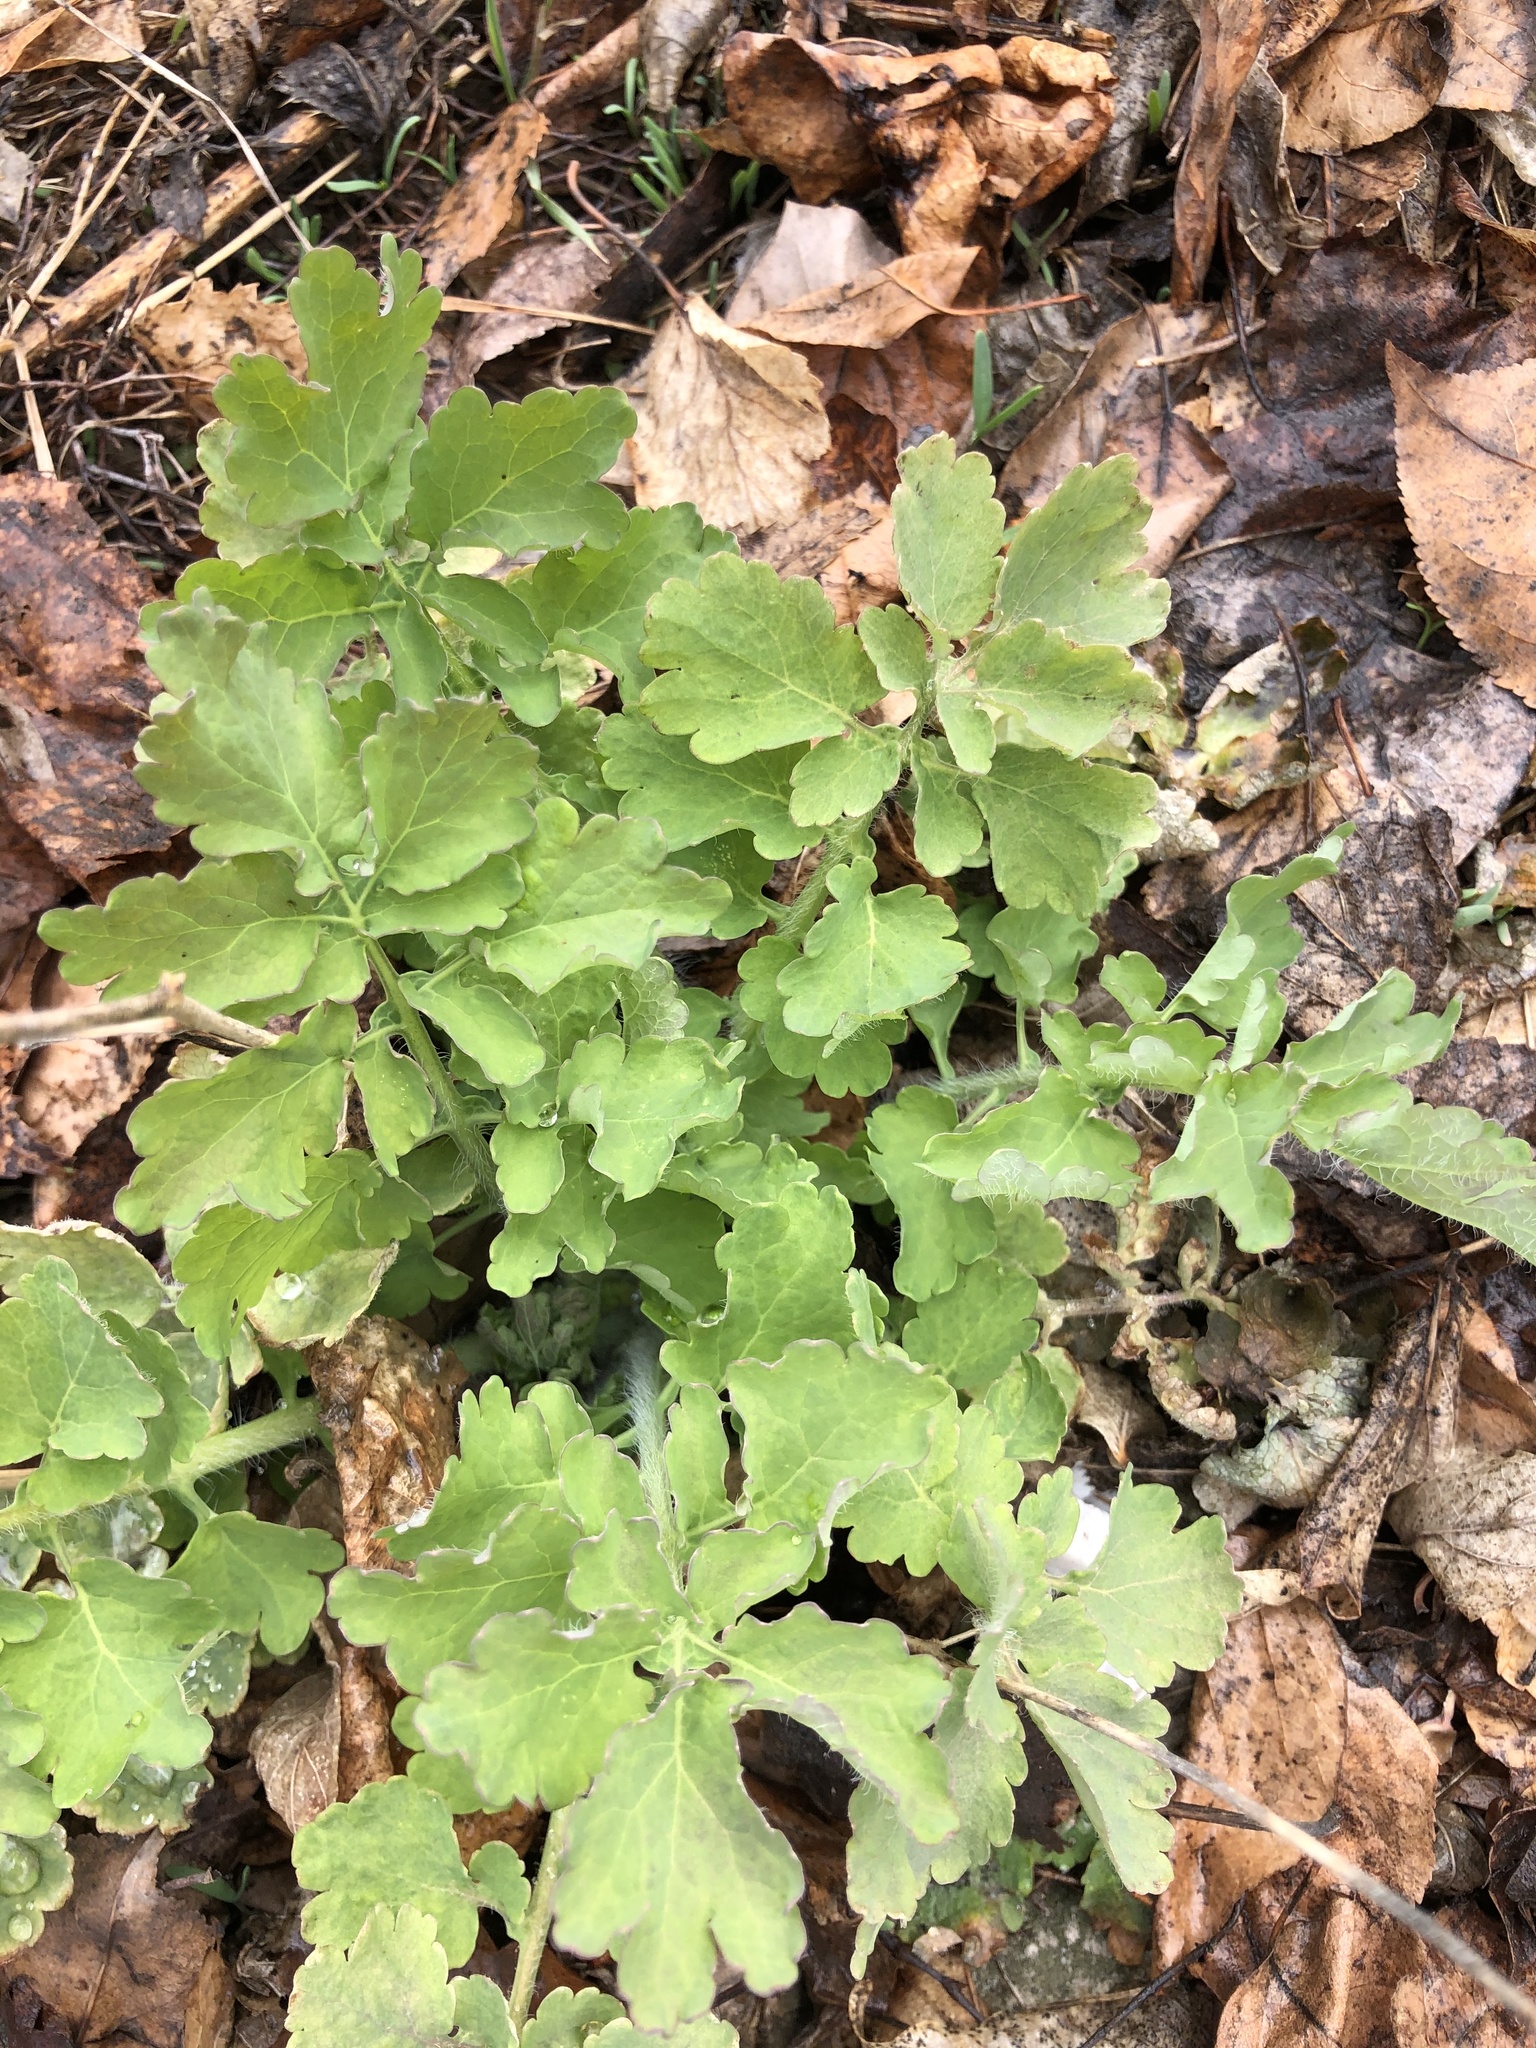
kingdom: Plantae
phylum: Tracheophyta
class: Magnoliopsida
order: Ranunculales
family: Papaveraceae
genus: Chelidonium
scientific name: Chelidonium majus
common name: Greater celandine
